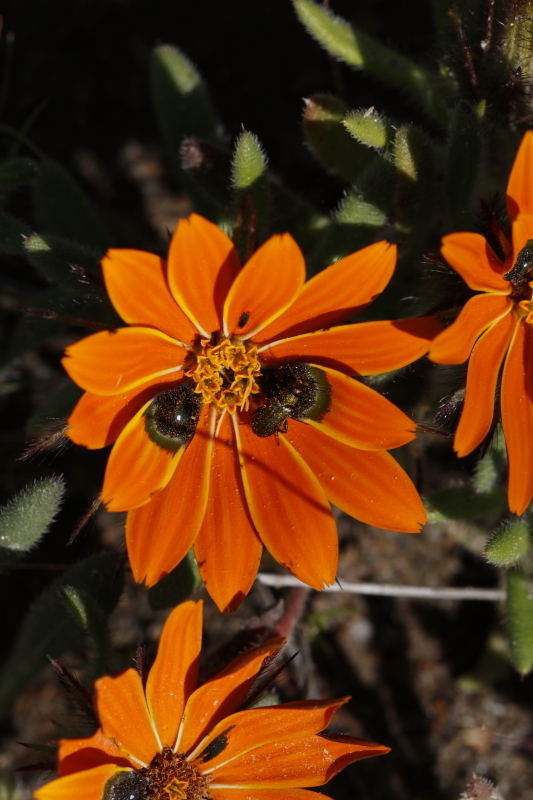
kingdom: Plantae
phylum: Tracheophyta
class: Magnoliopsida
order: Asterales
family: Asteraceae
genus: Gorteria
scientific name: Gorteria diffusa
